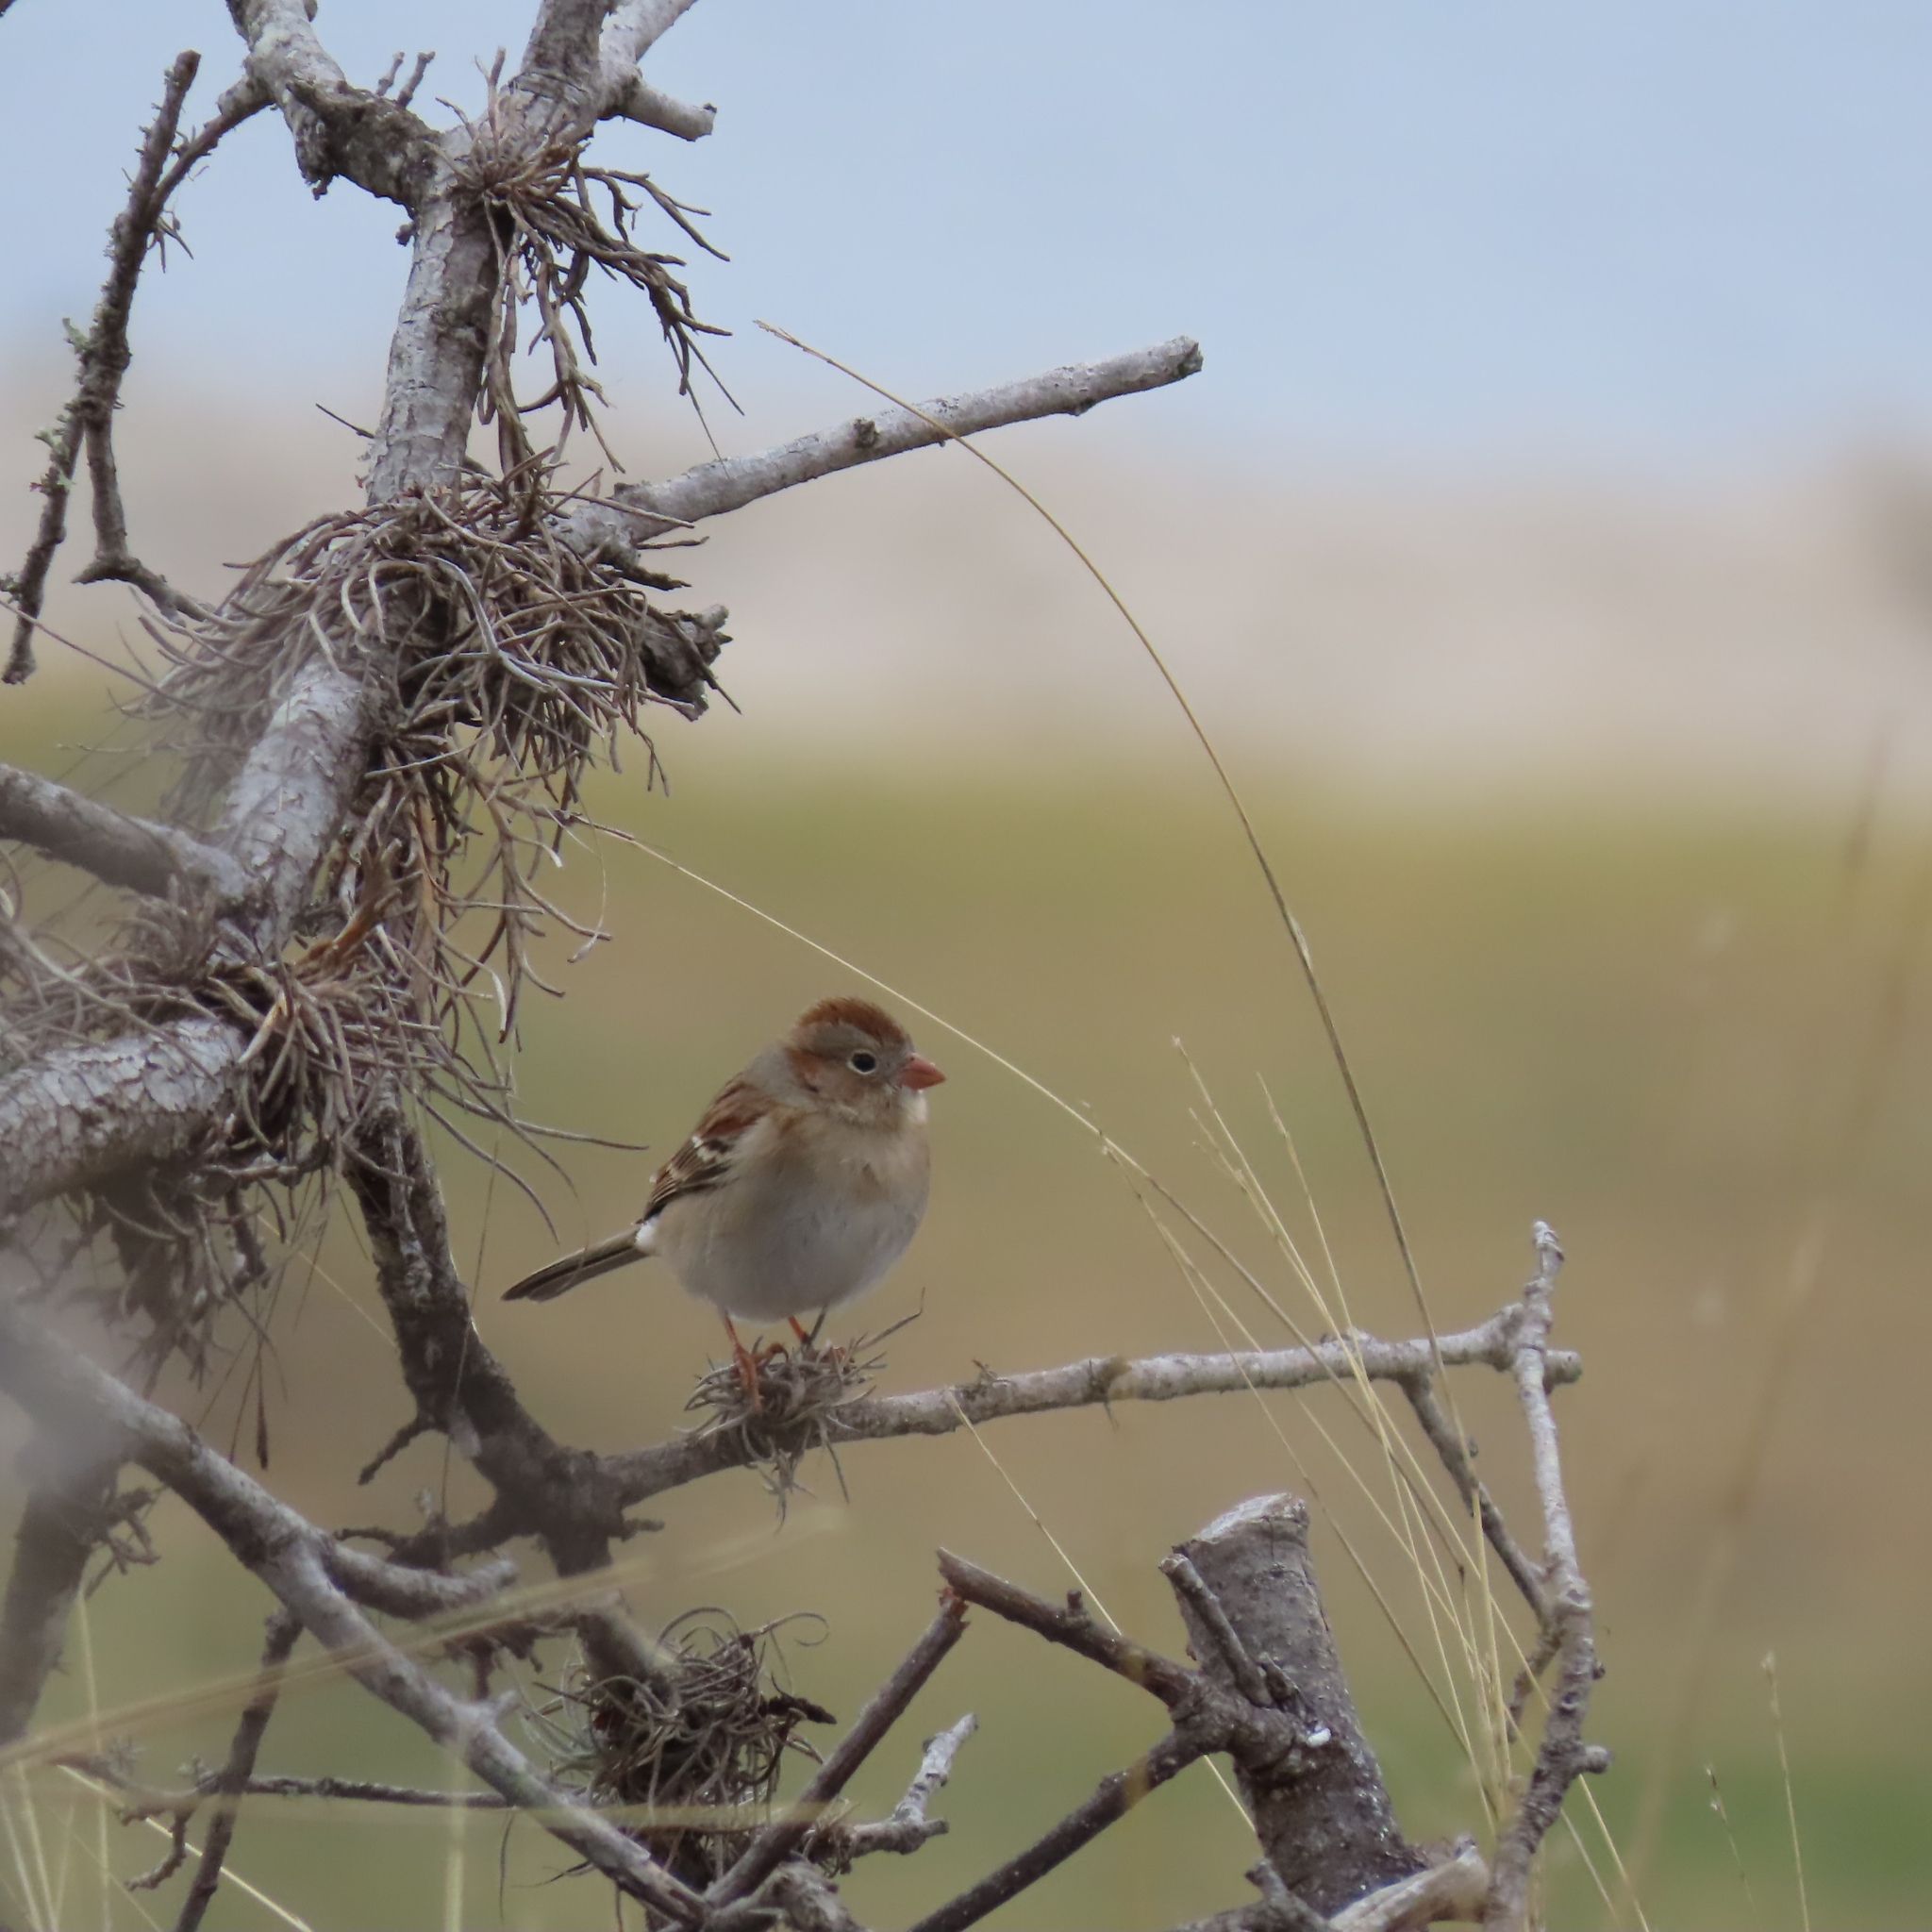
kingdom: Animalia
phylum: Chordata
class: Aves
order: Passeriformes
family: Passerellidae
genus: Spizella
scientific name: Spizella pusilla
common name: Field sparrow
